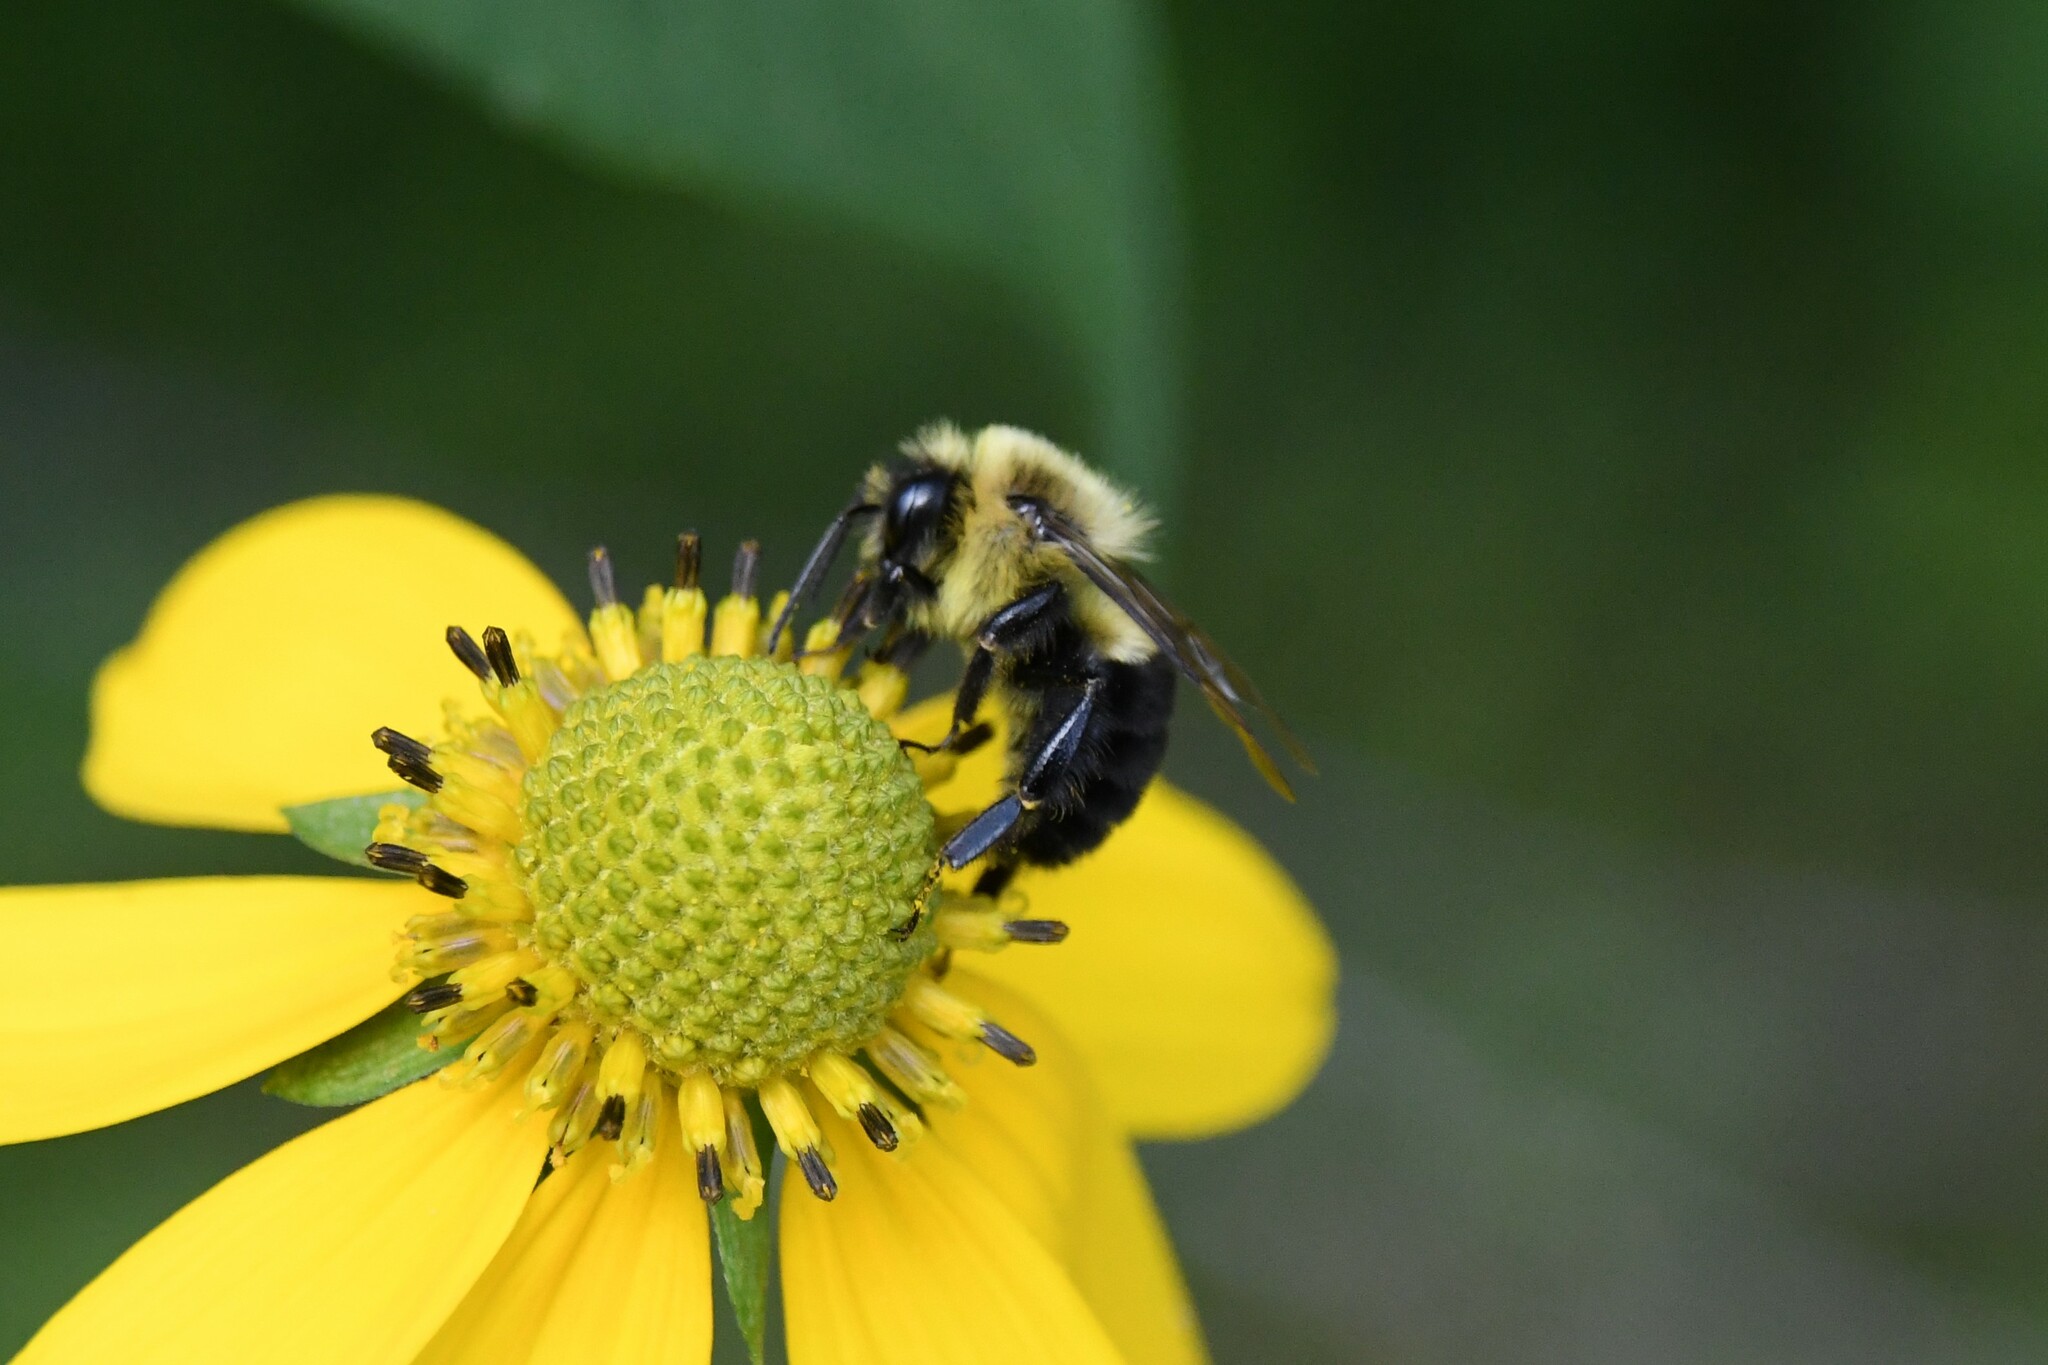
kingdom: Animalia
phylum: Arthropoda
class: Insecta
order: Hymenoptera
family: Apidae
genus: Bombus
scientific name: Bombus impatiens
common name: Common eastern bumble bee
